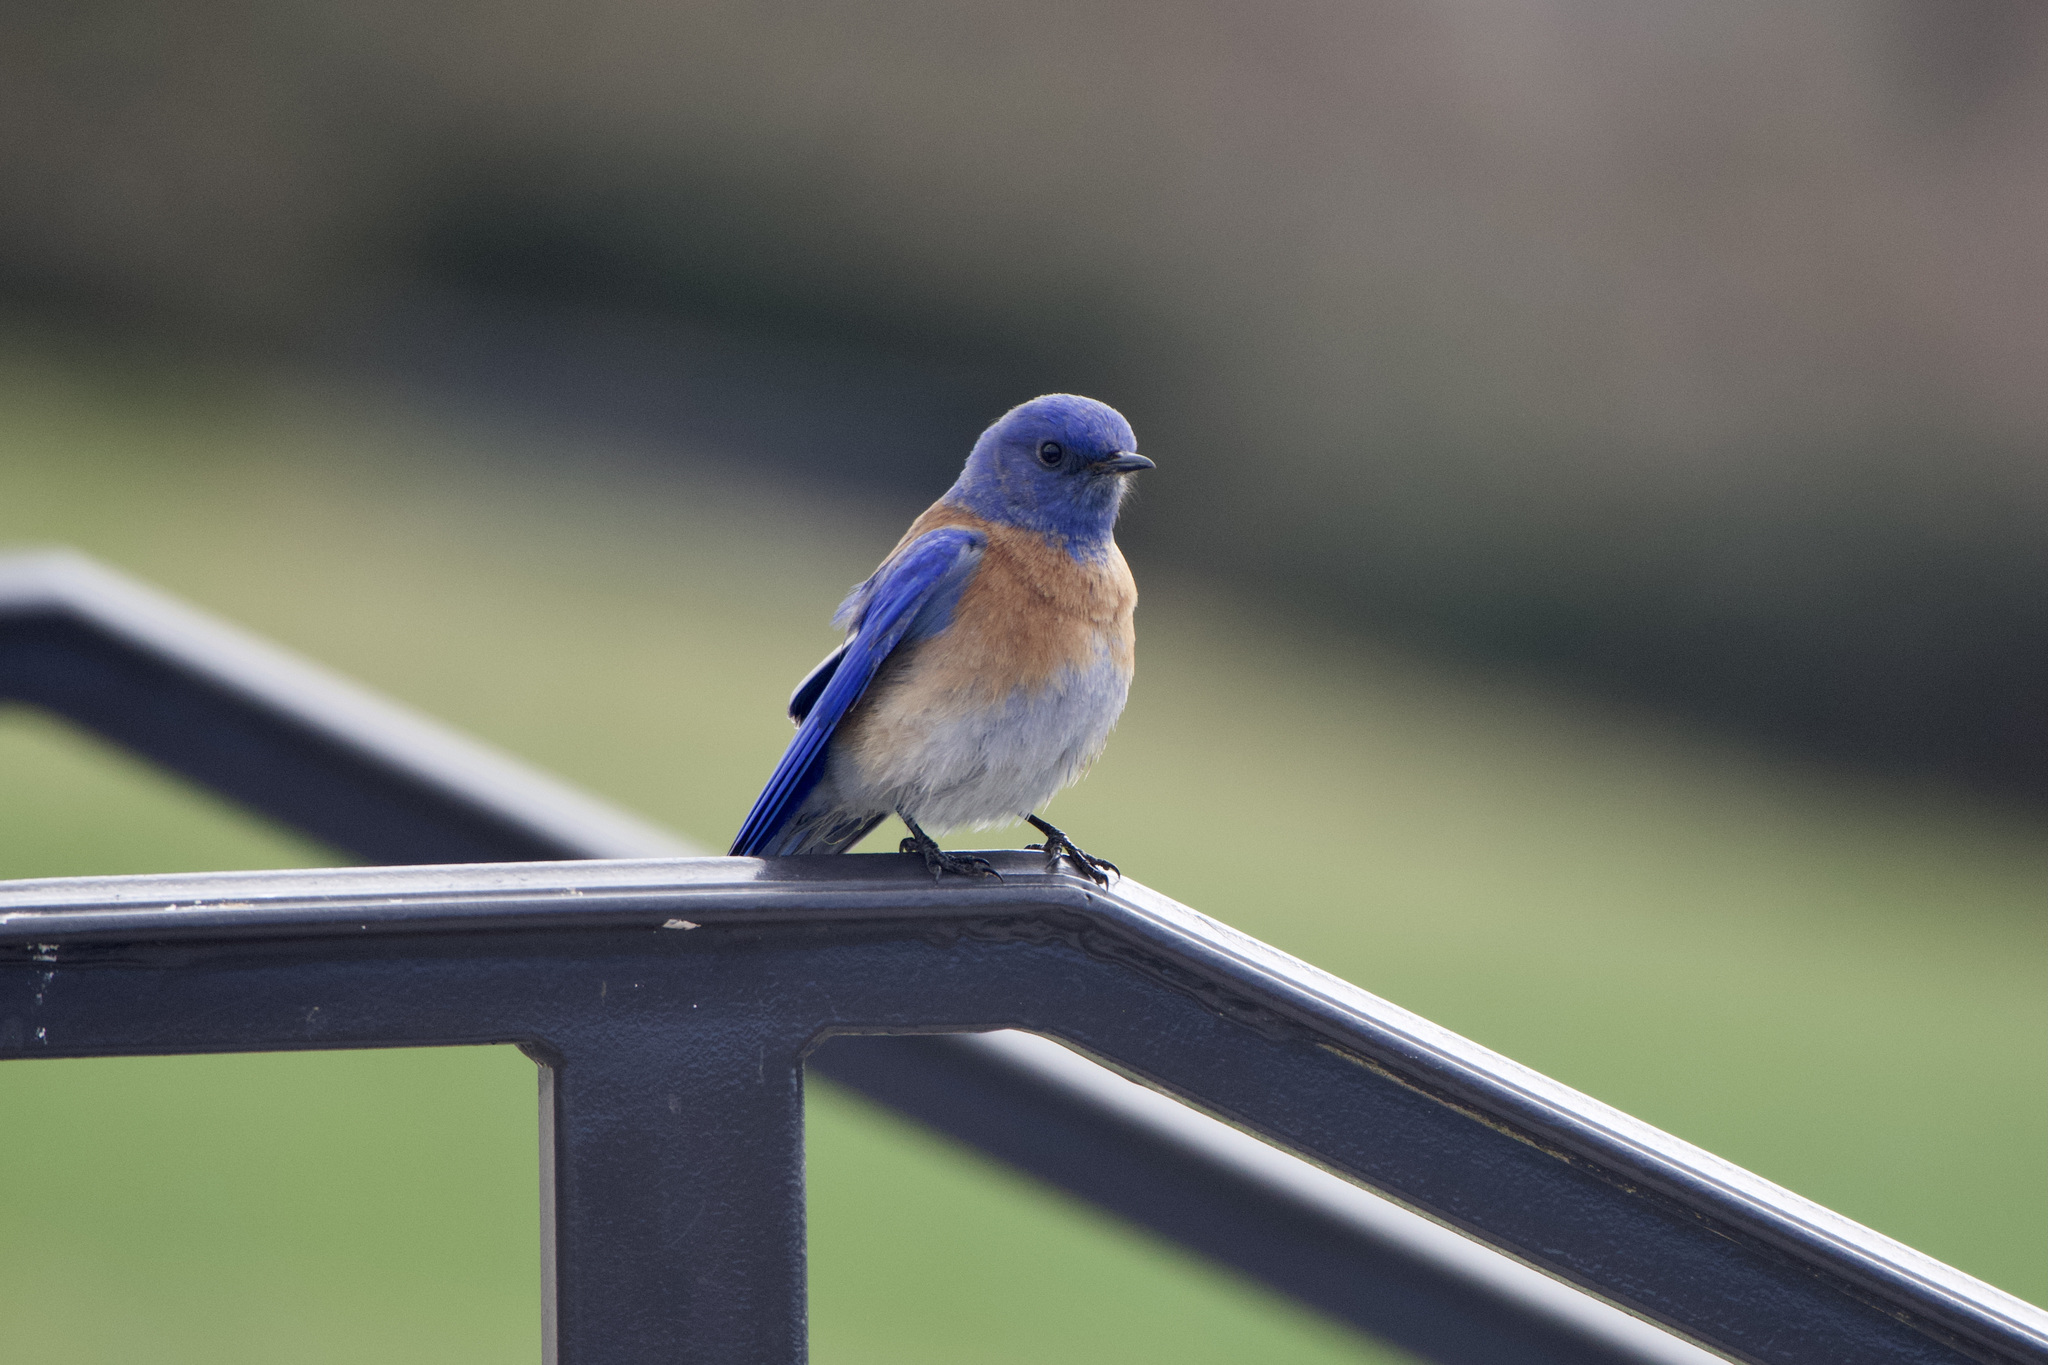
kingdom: Animalia
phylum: Chordata
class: Aves
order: Passeriformes
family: Turdidae
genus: Sialia
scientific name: Sialia mexicana
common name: Western bluebird
